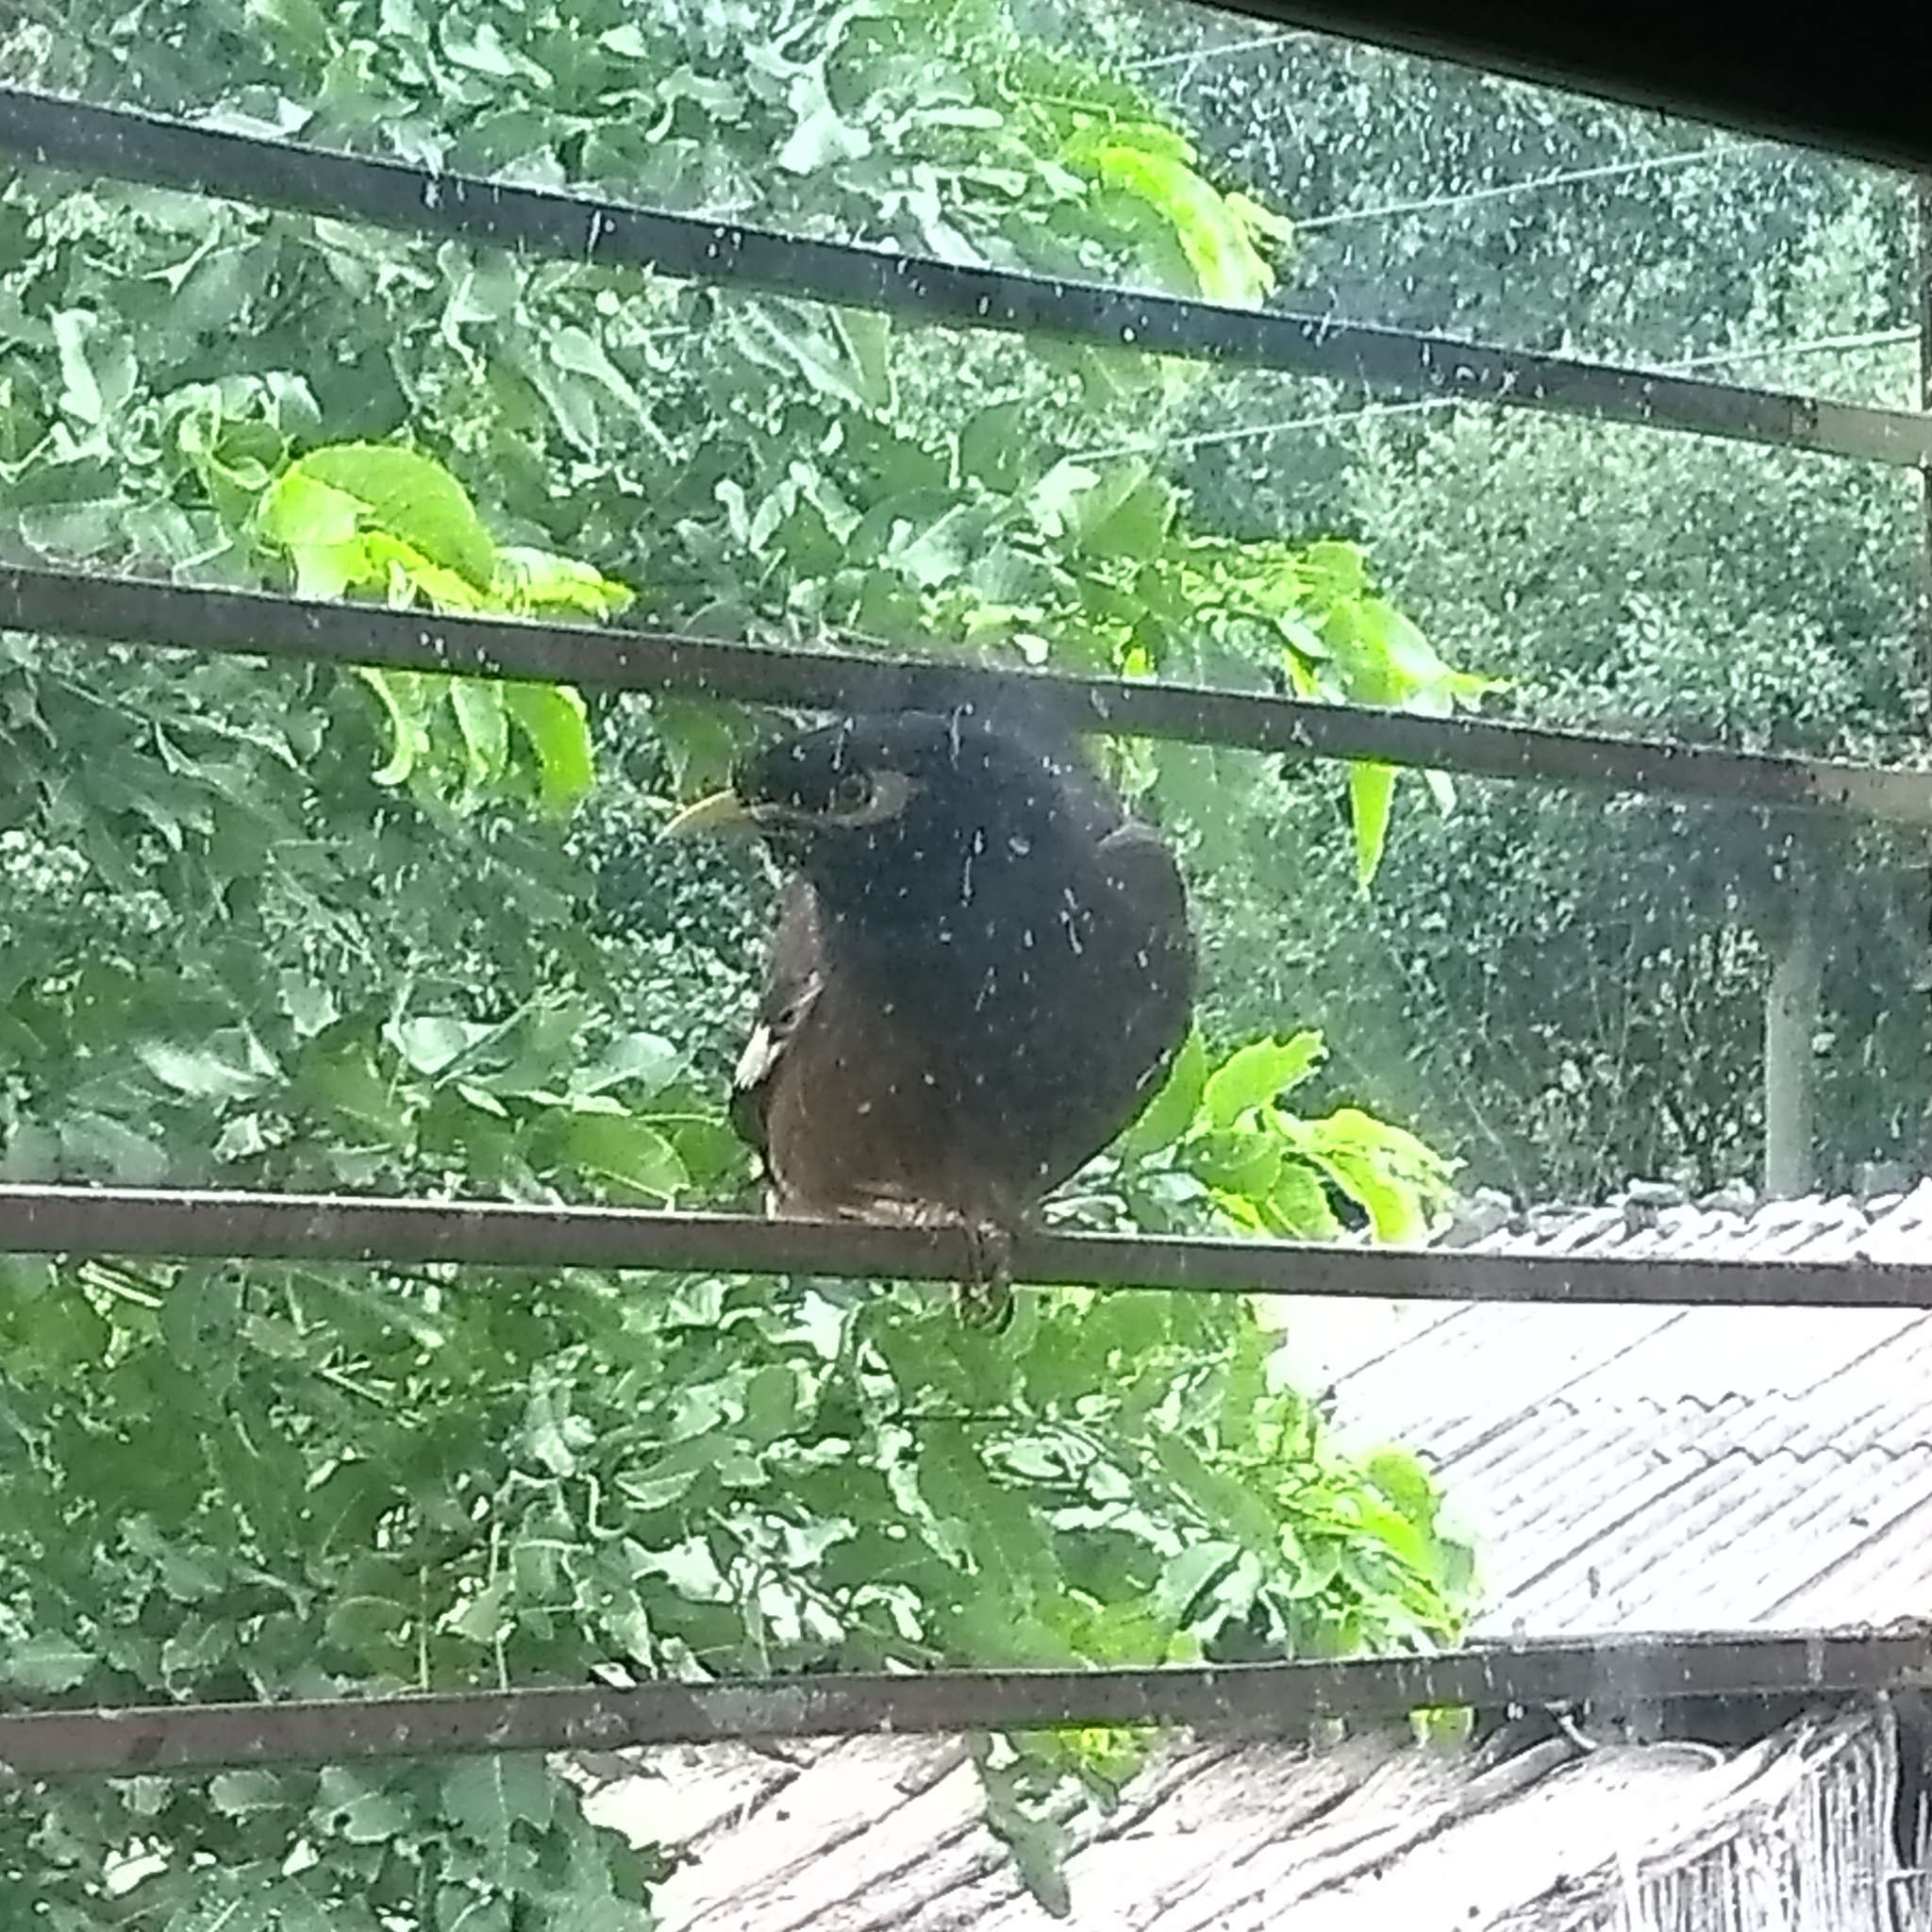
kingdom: Animalia
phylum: Chordata
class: Aves
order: Passeriformes
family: Sturnidae
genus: Acridotheres
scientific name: Acridotheres tristis
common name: Common myna
